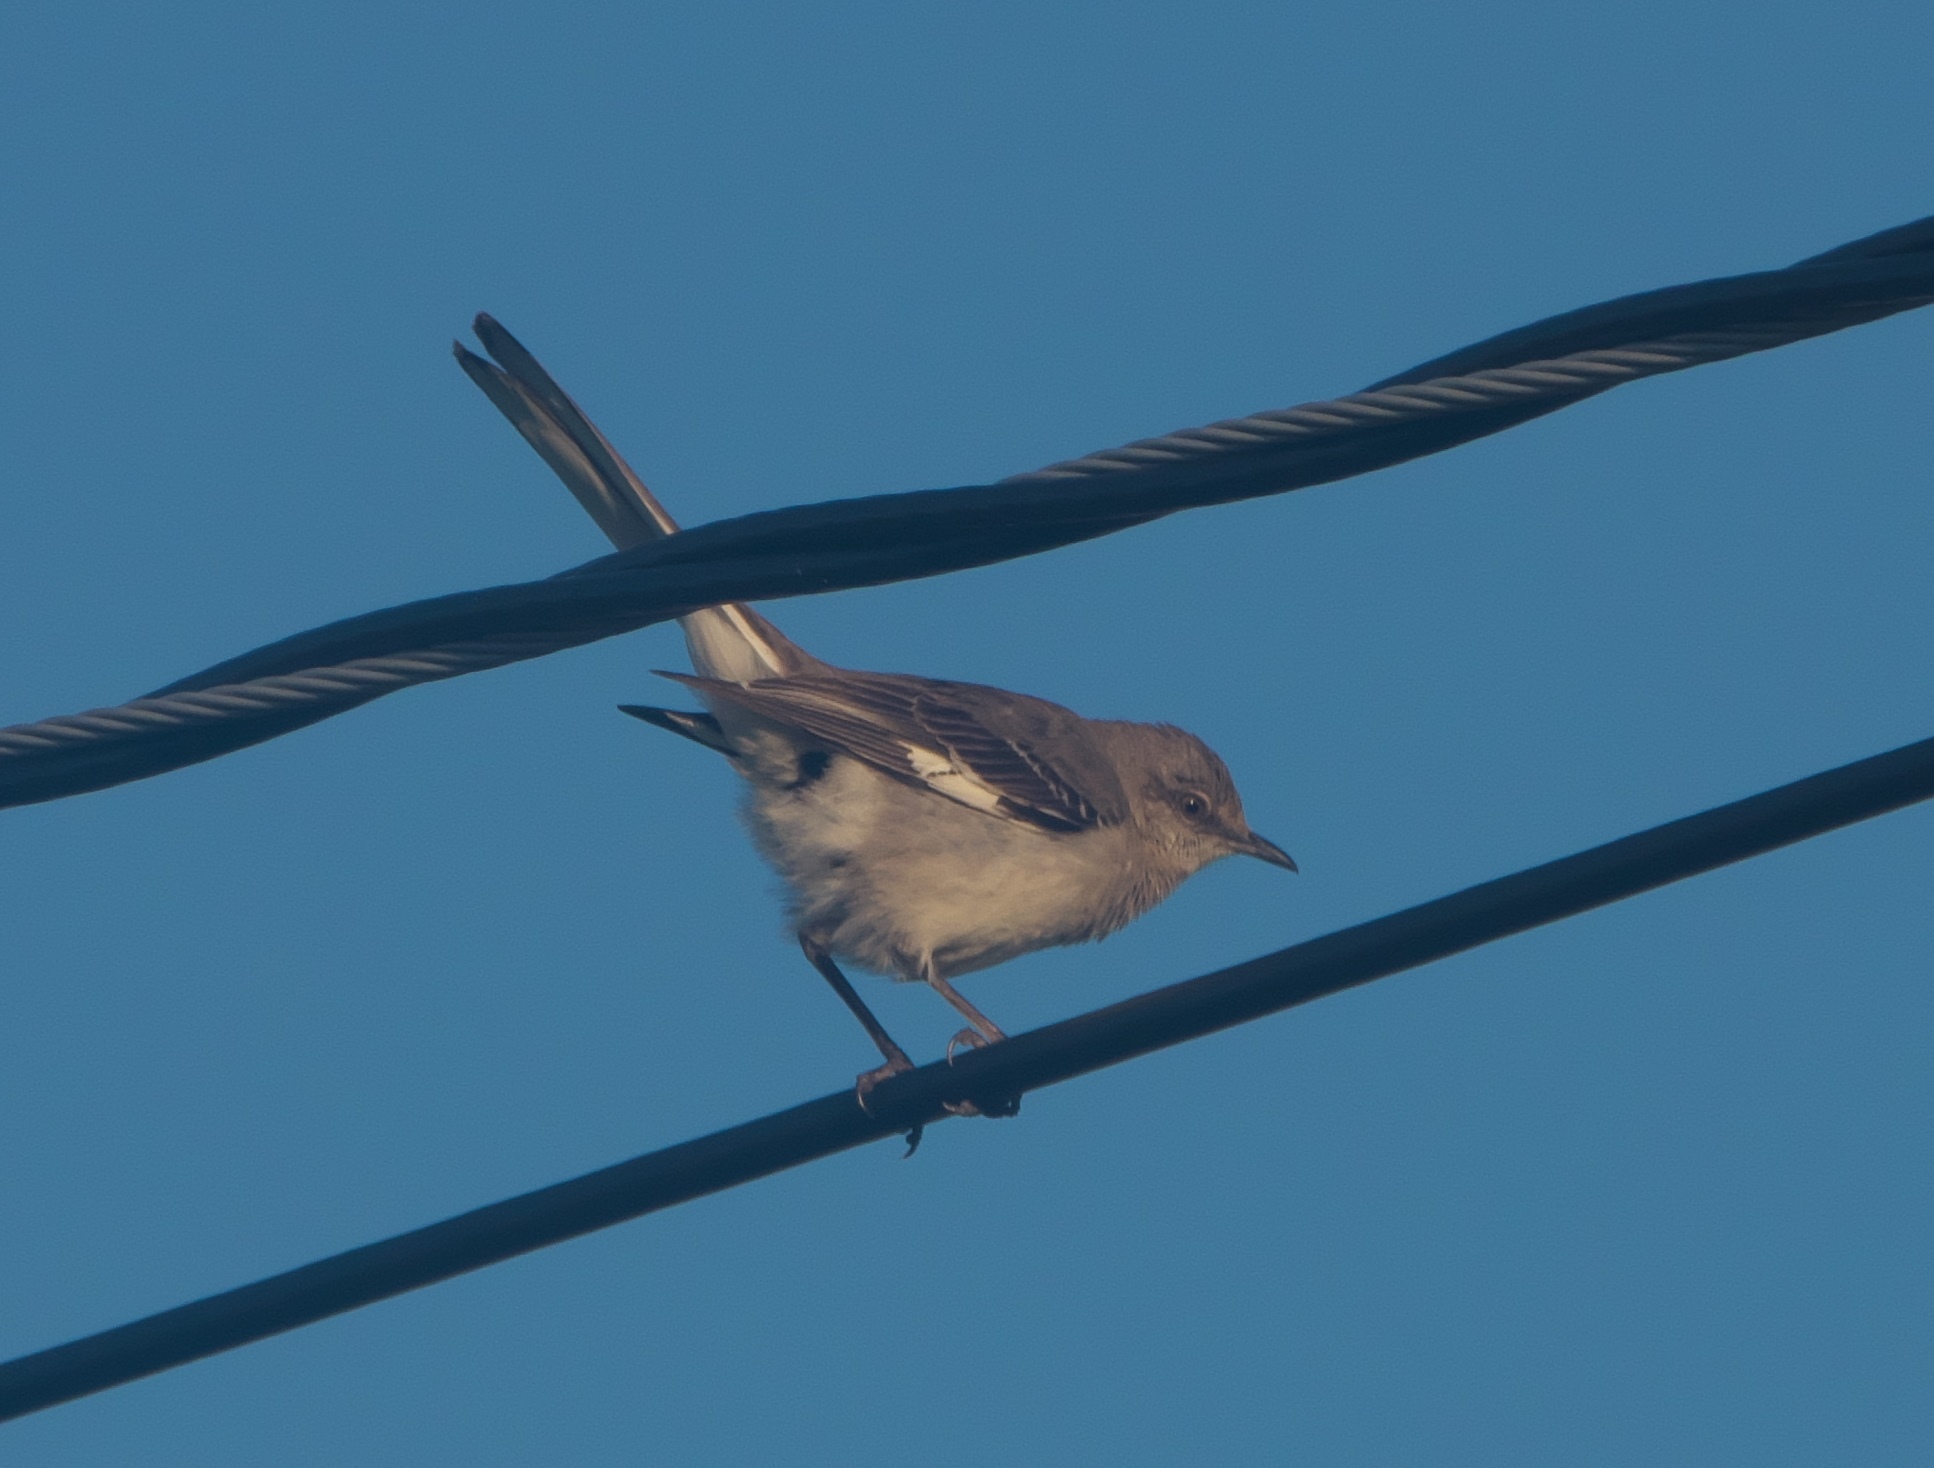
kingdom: Animalia
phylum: Chordata
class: Aves
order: Passeriformes
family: Mimidae
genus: Mimus
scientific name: Mimus polyglottos
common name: Northern mockingbird
